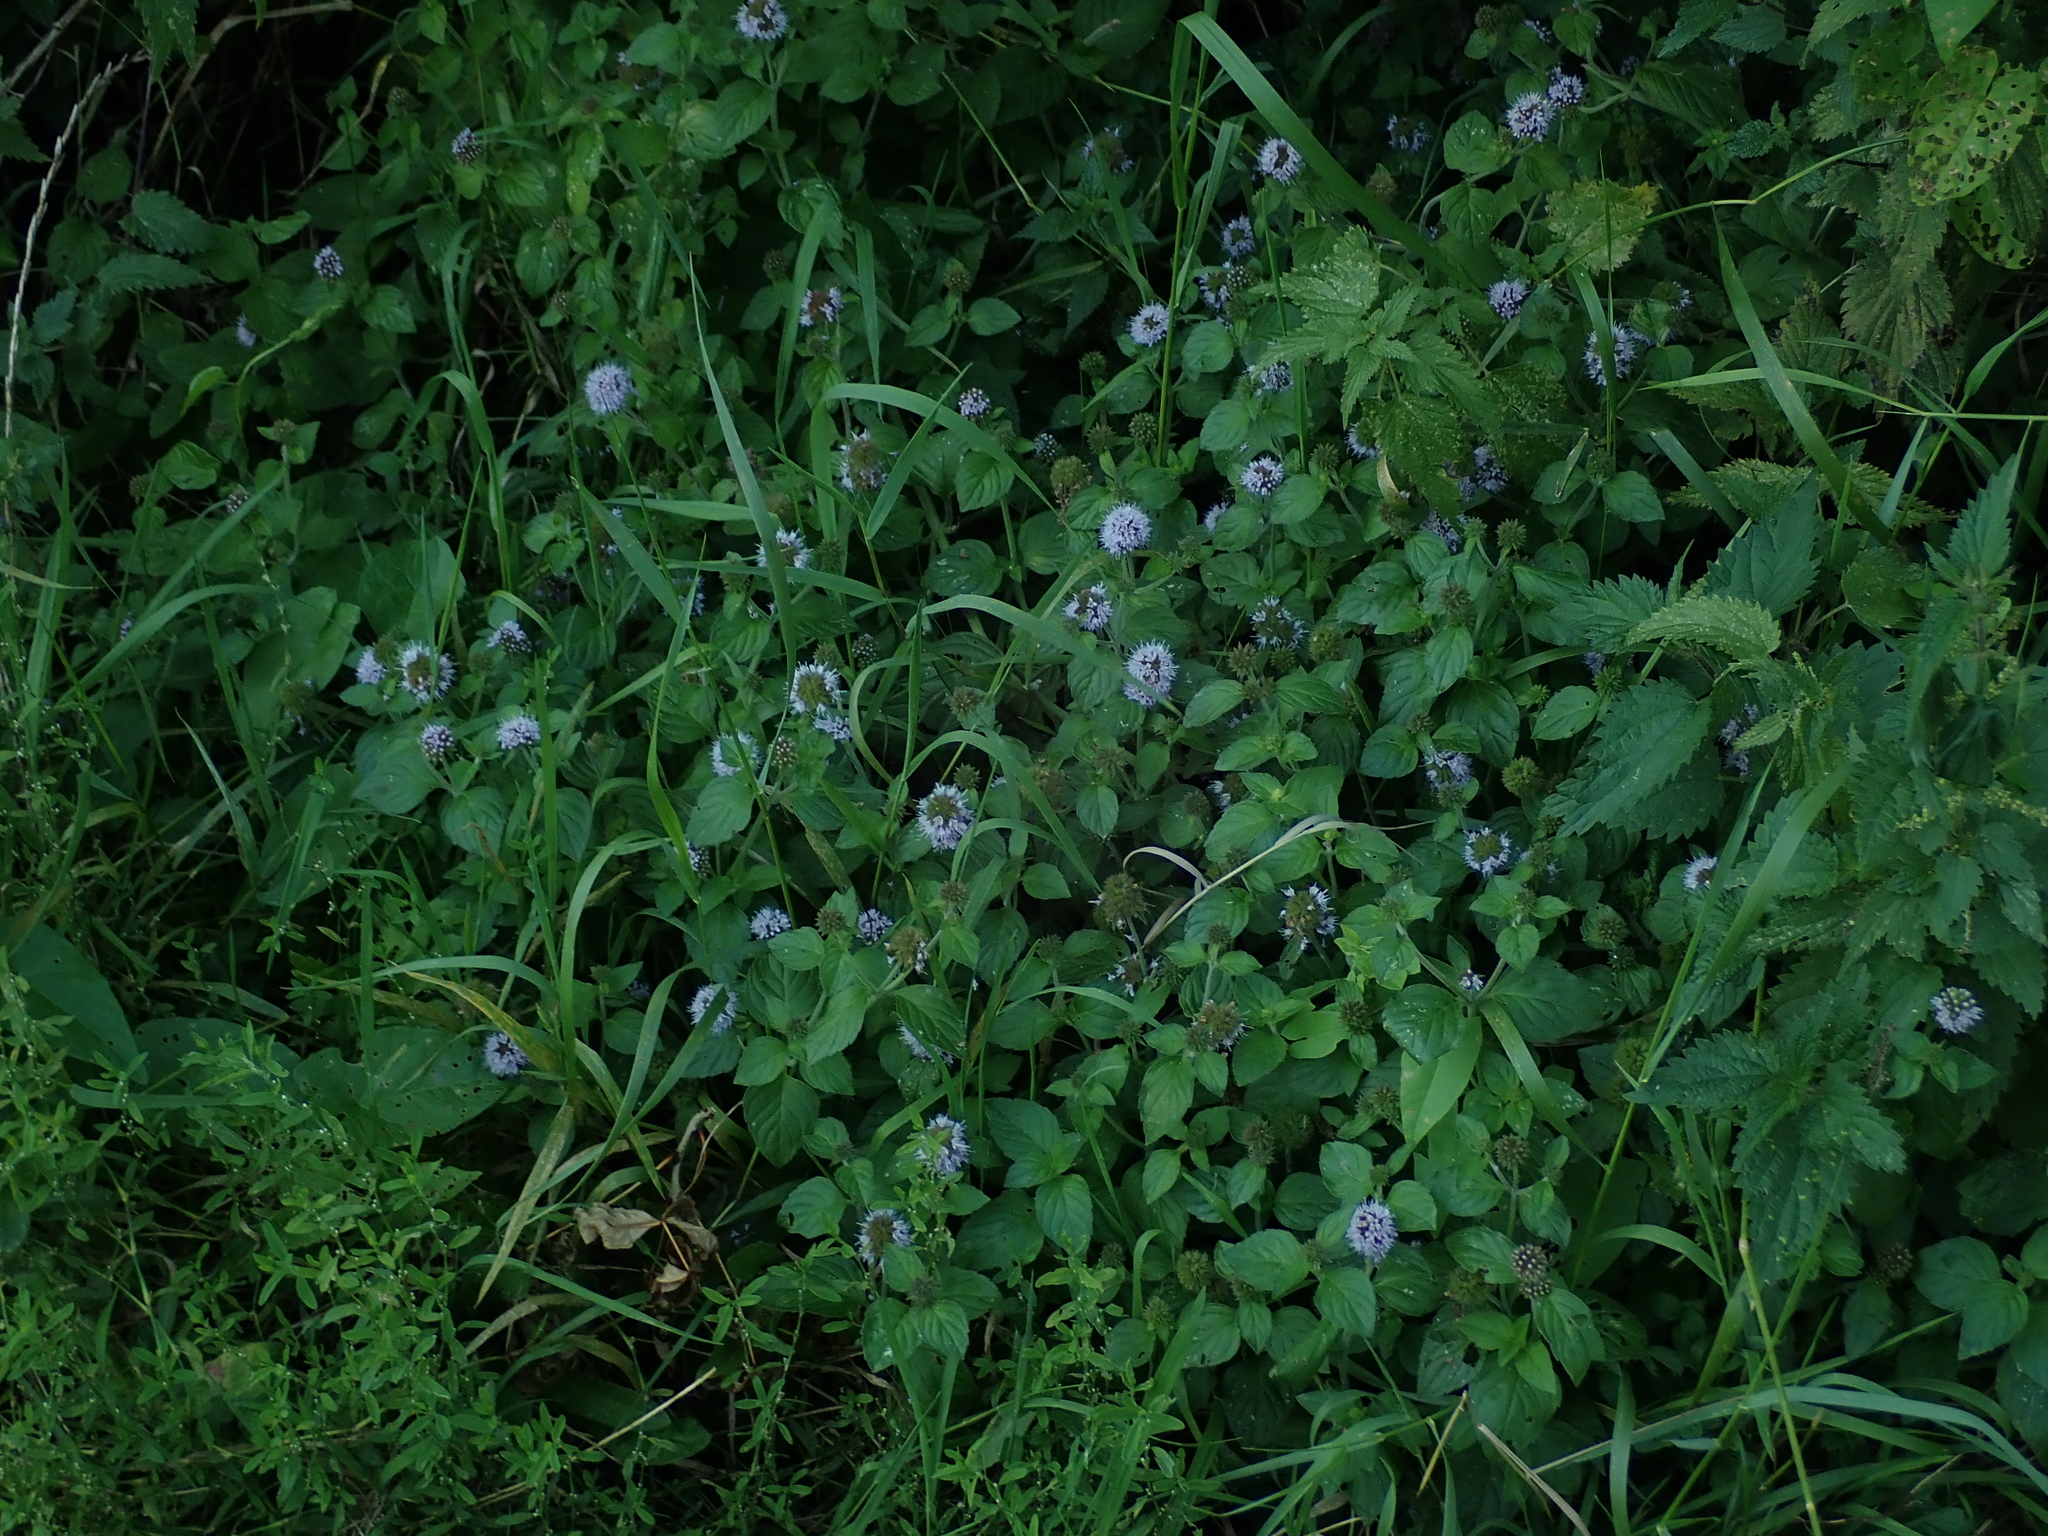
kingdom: Plantae
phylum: Tracheophyta
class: Magnoliopsida
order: Lamiales
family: Lamiaceae
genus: Mentha
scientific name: Mentha aquatica
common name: Water mint
